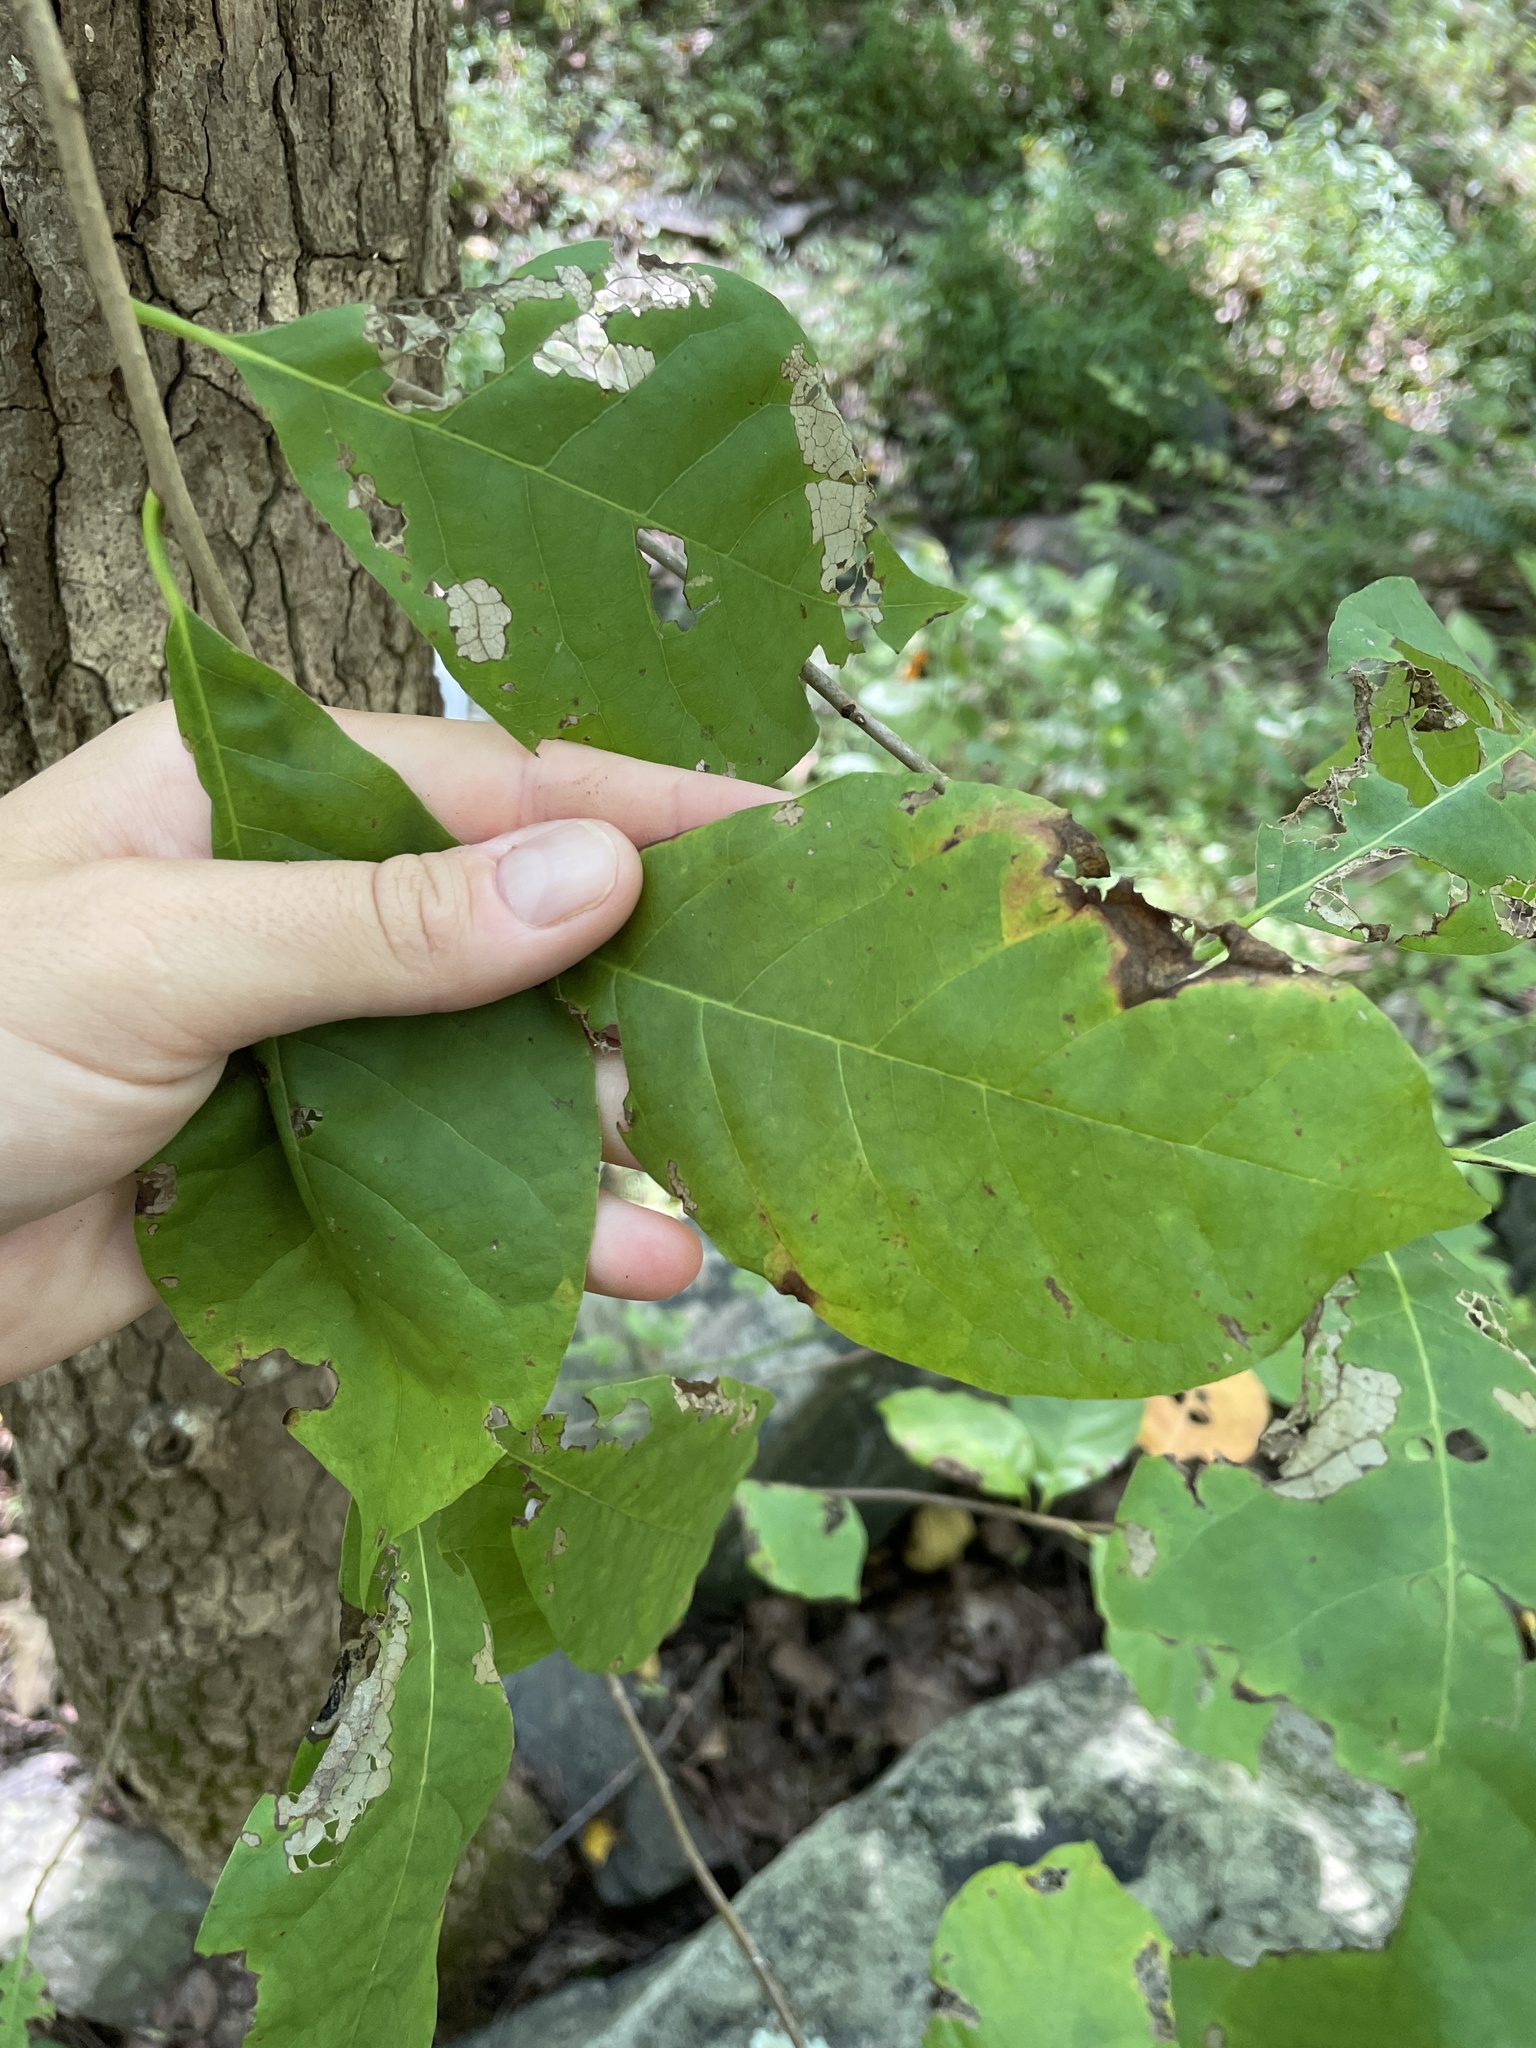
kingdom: Plantae
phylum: Tracheophyta
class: Magnoliopsida
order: Cornales
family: Nyssaceae
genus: Nyssa
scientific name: Nyssa sylvatica
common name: Black tupelo
